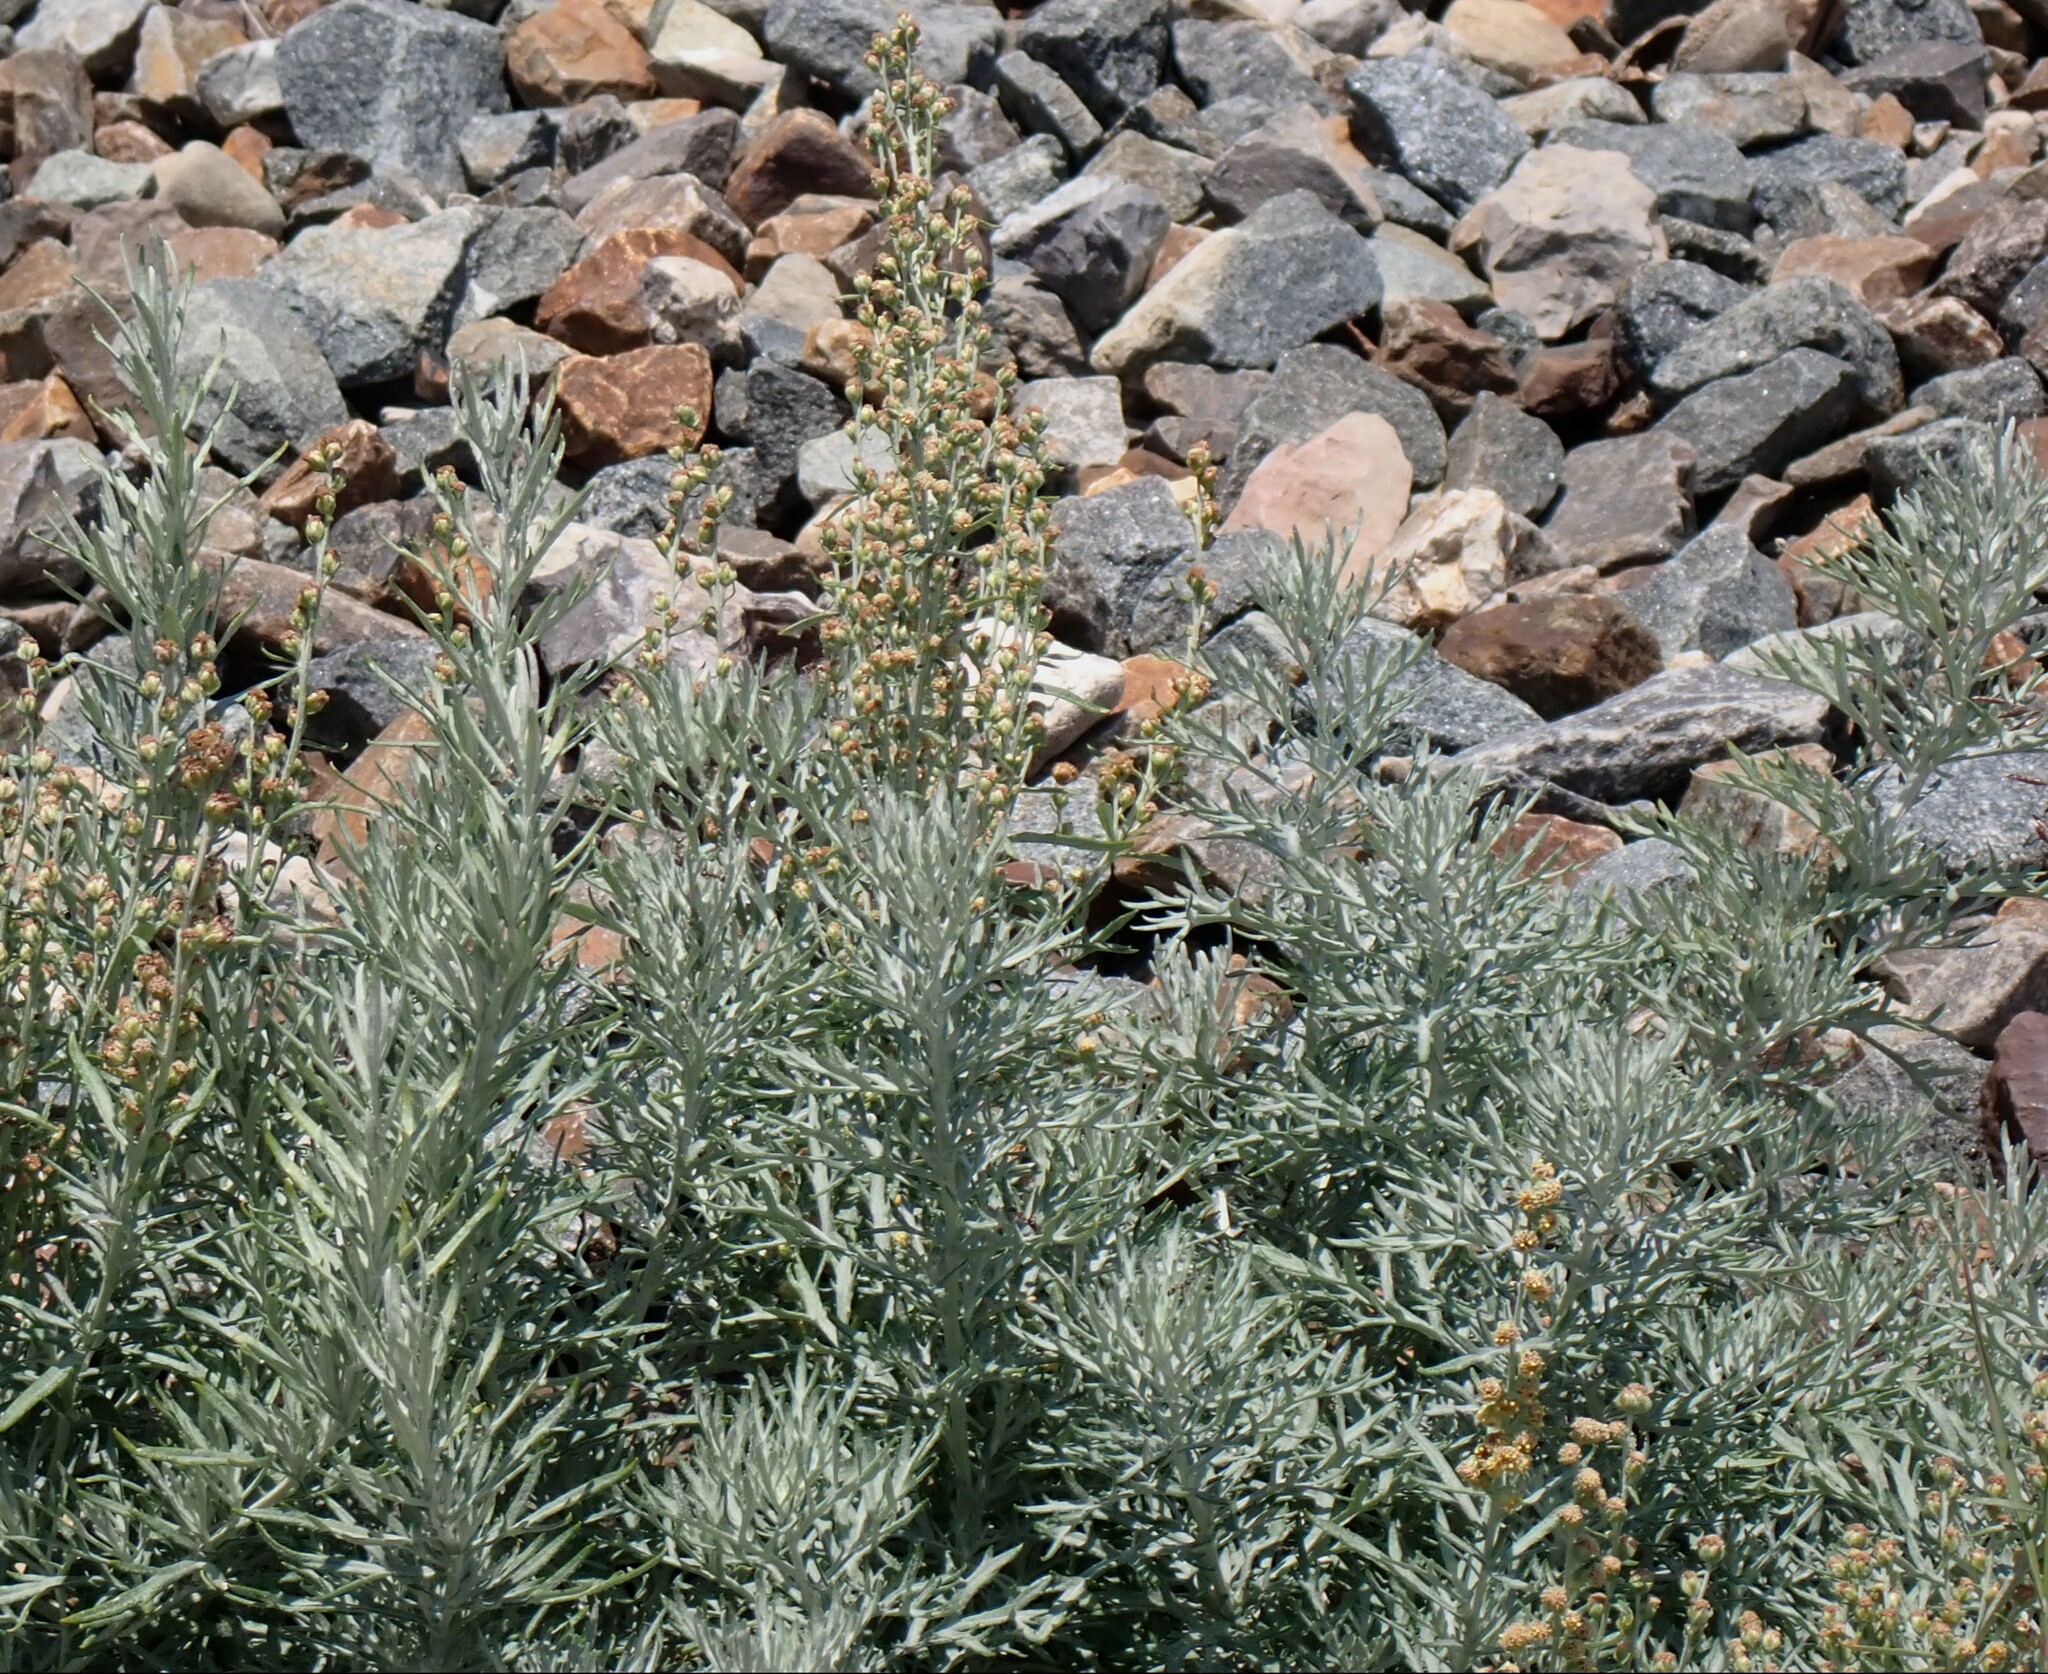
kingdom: Plantae
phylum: Tracheophyta
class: Magnoliopsida
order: Asterales
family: Asteraceae
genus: Artemisia
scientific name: Artemisia michauxiana
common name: Lemon sagewort
